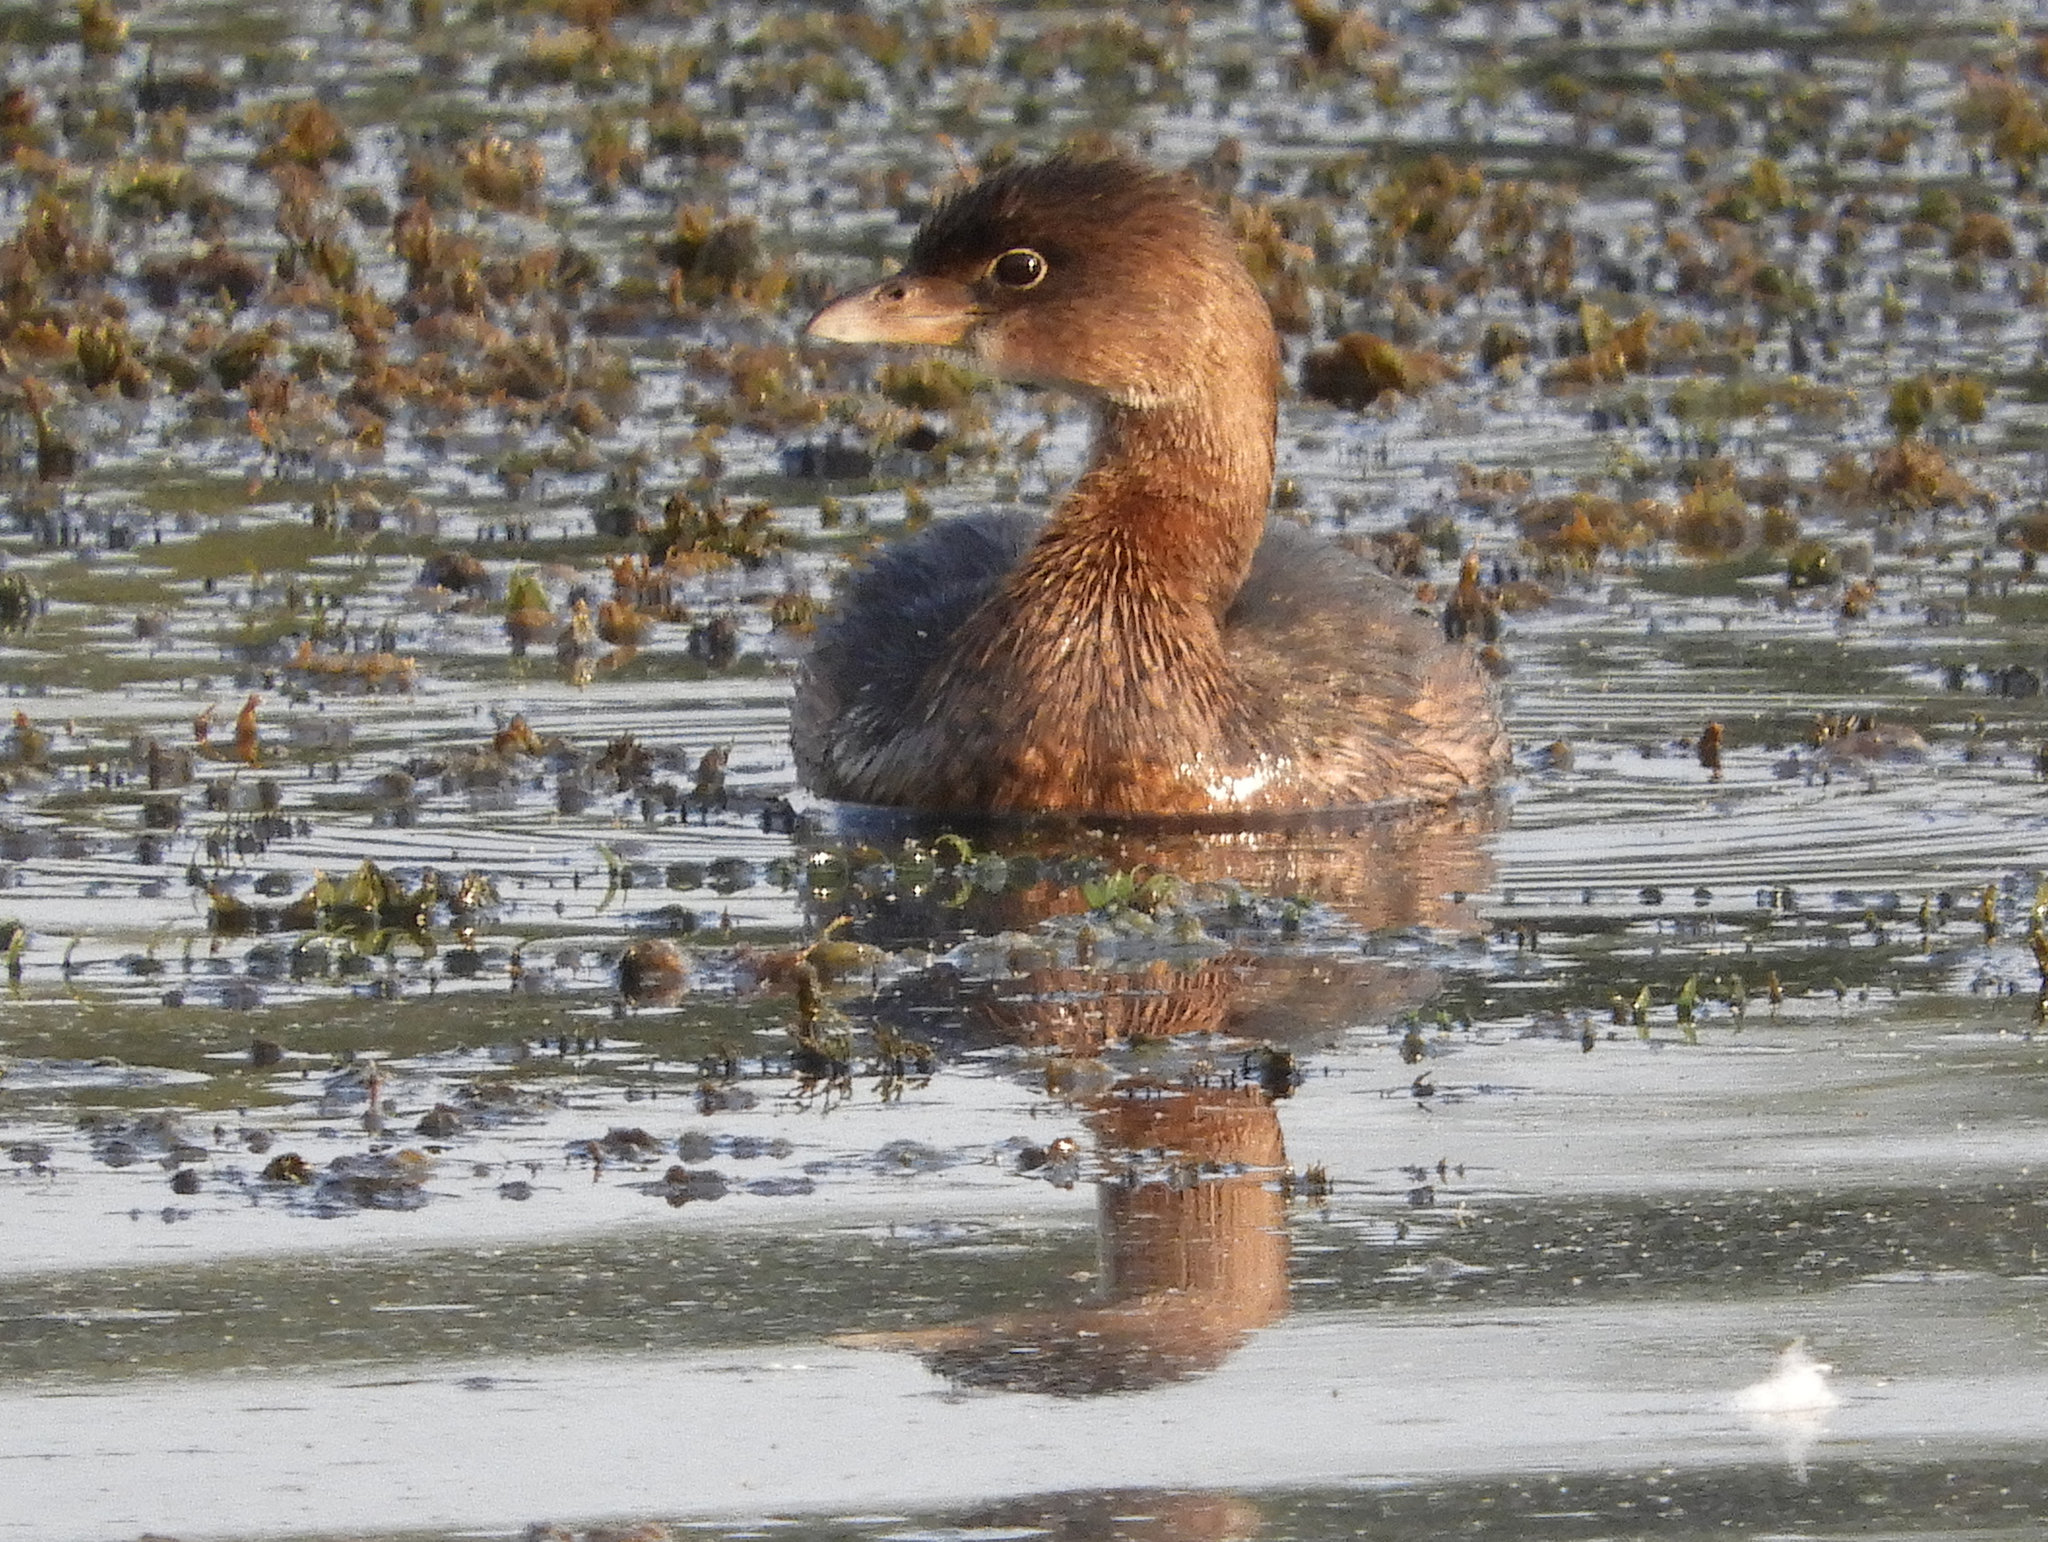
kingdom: Animalia
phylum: Chordata
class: Aves
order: Podicipediformes
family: Podicipedidae
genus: Podilymbus
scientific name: Podilymbus podiceps
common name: Pied-billed grebe
